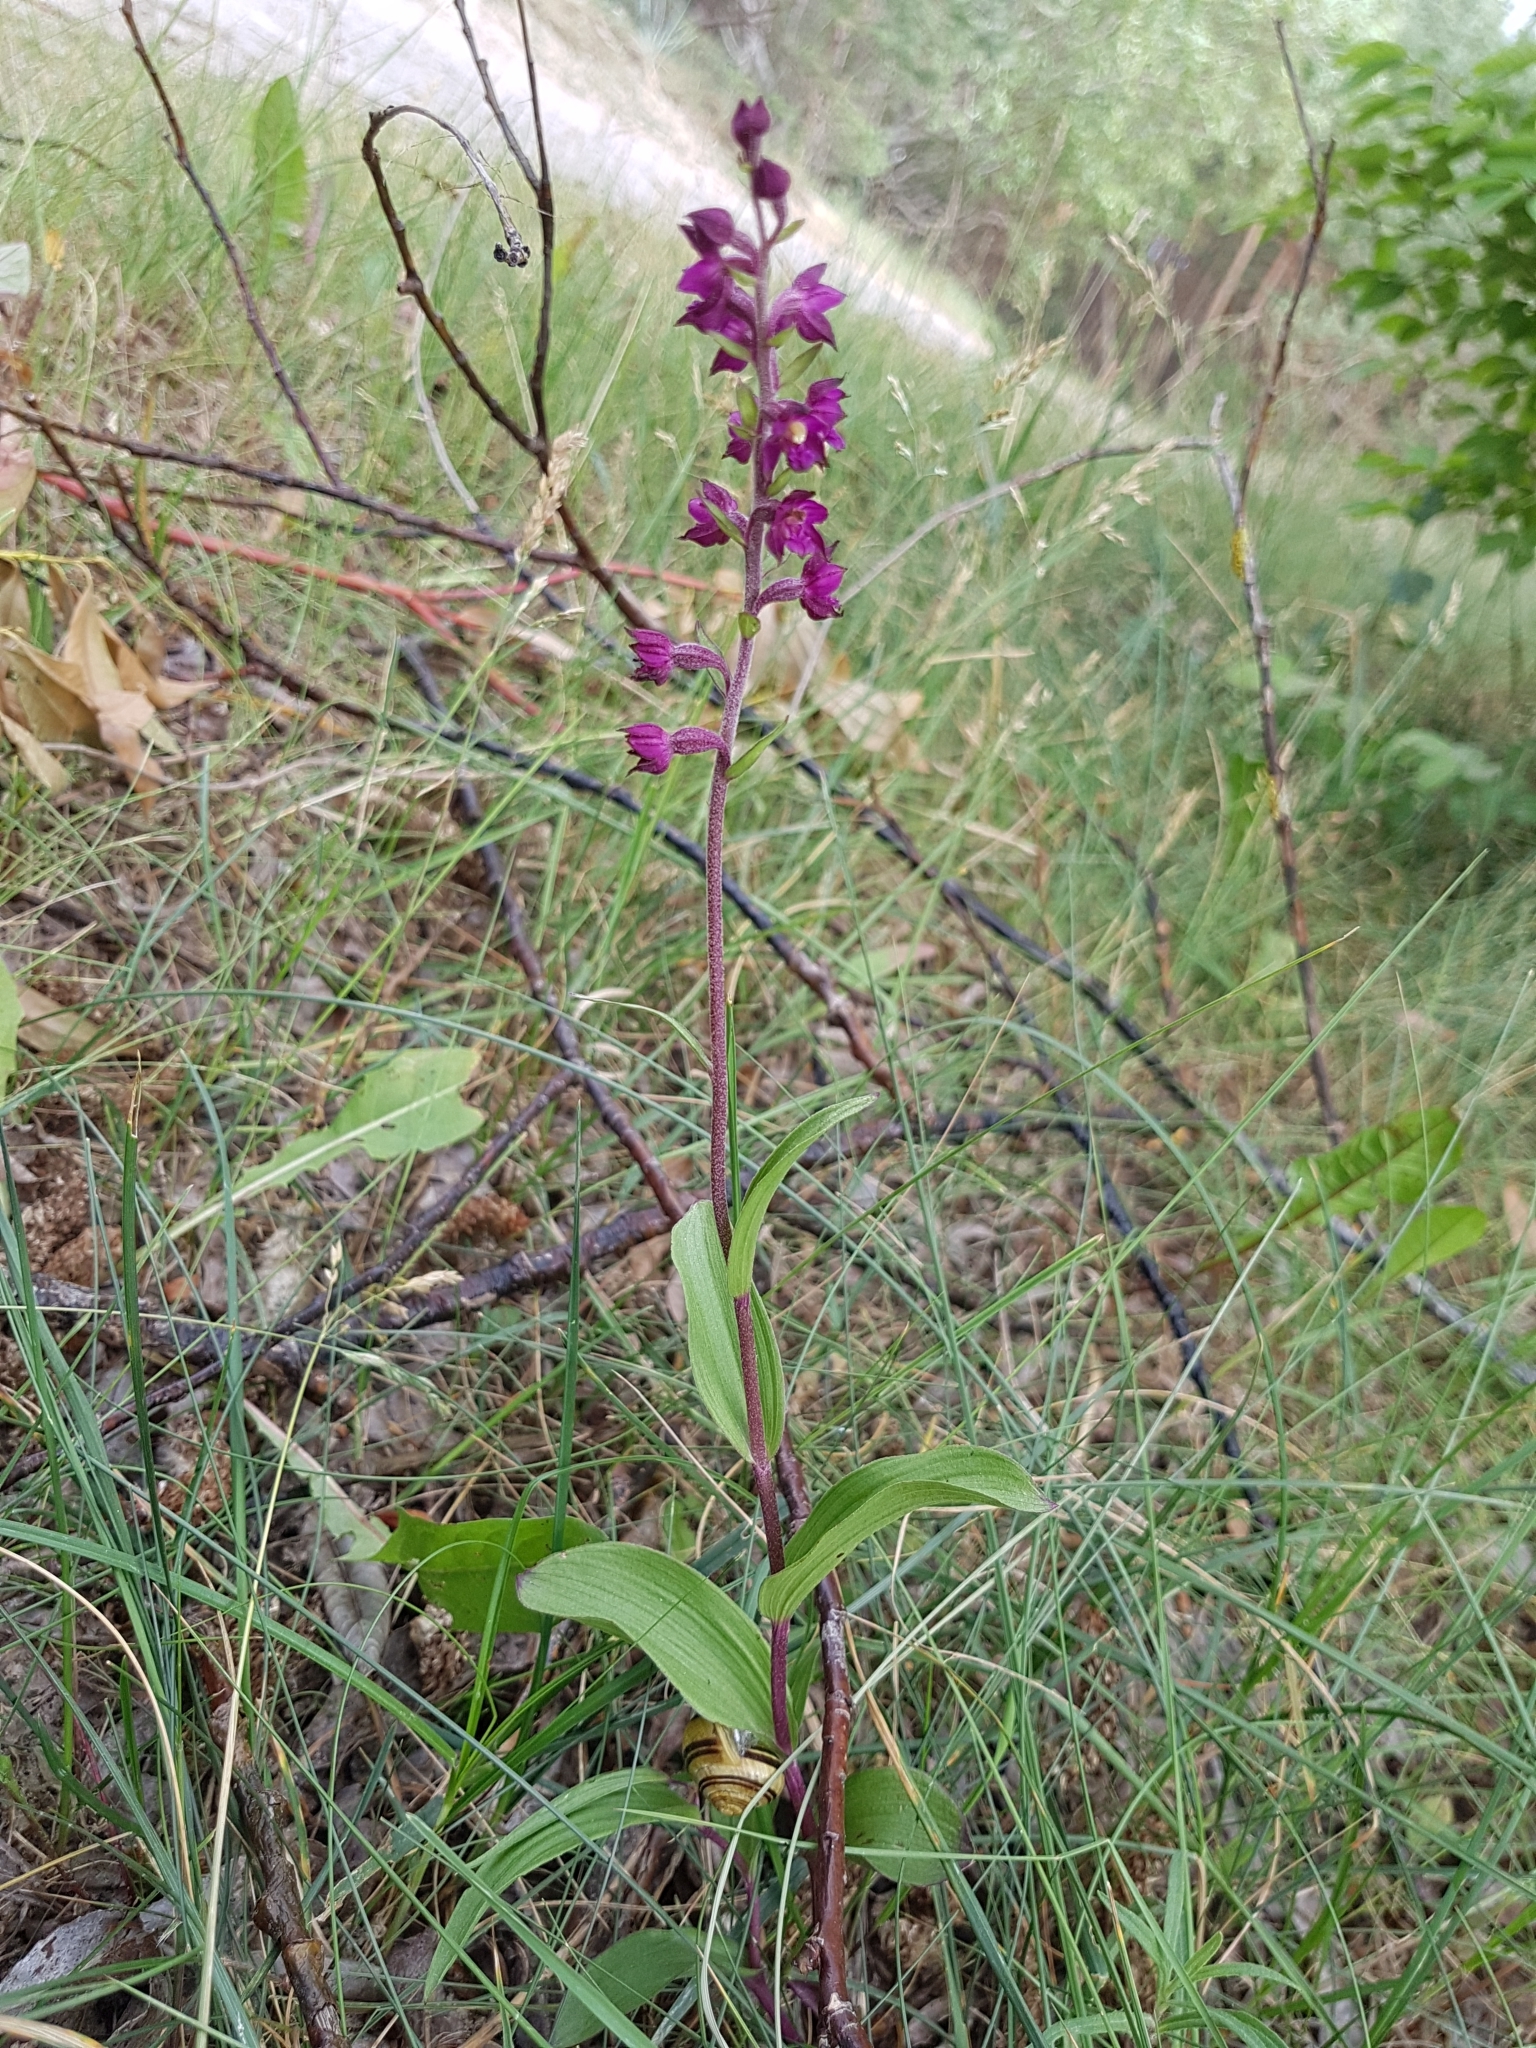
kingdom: Plantae
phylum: Tracheophyta
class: Liliopsida
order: Asparagales
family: Orchidaceae
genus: Epipactis
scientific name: Epipactis atrorubens
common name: Dark-red helleborine
